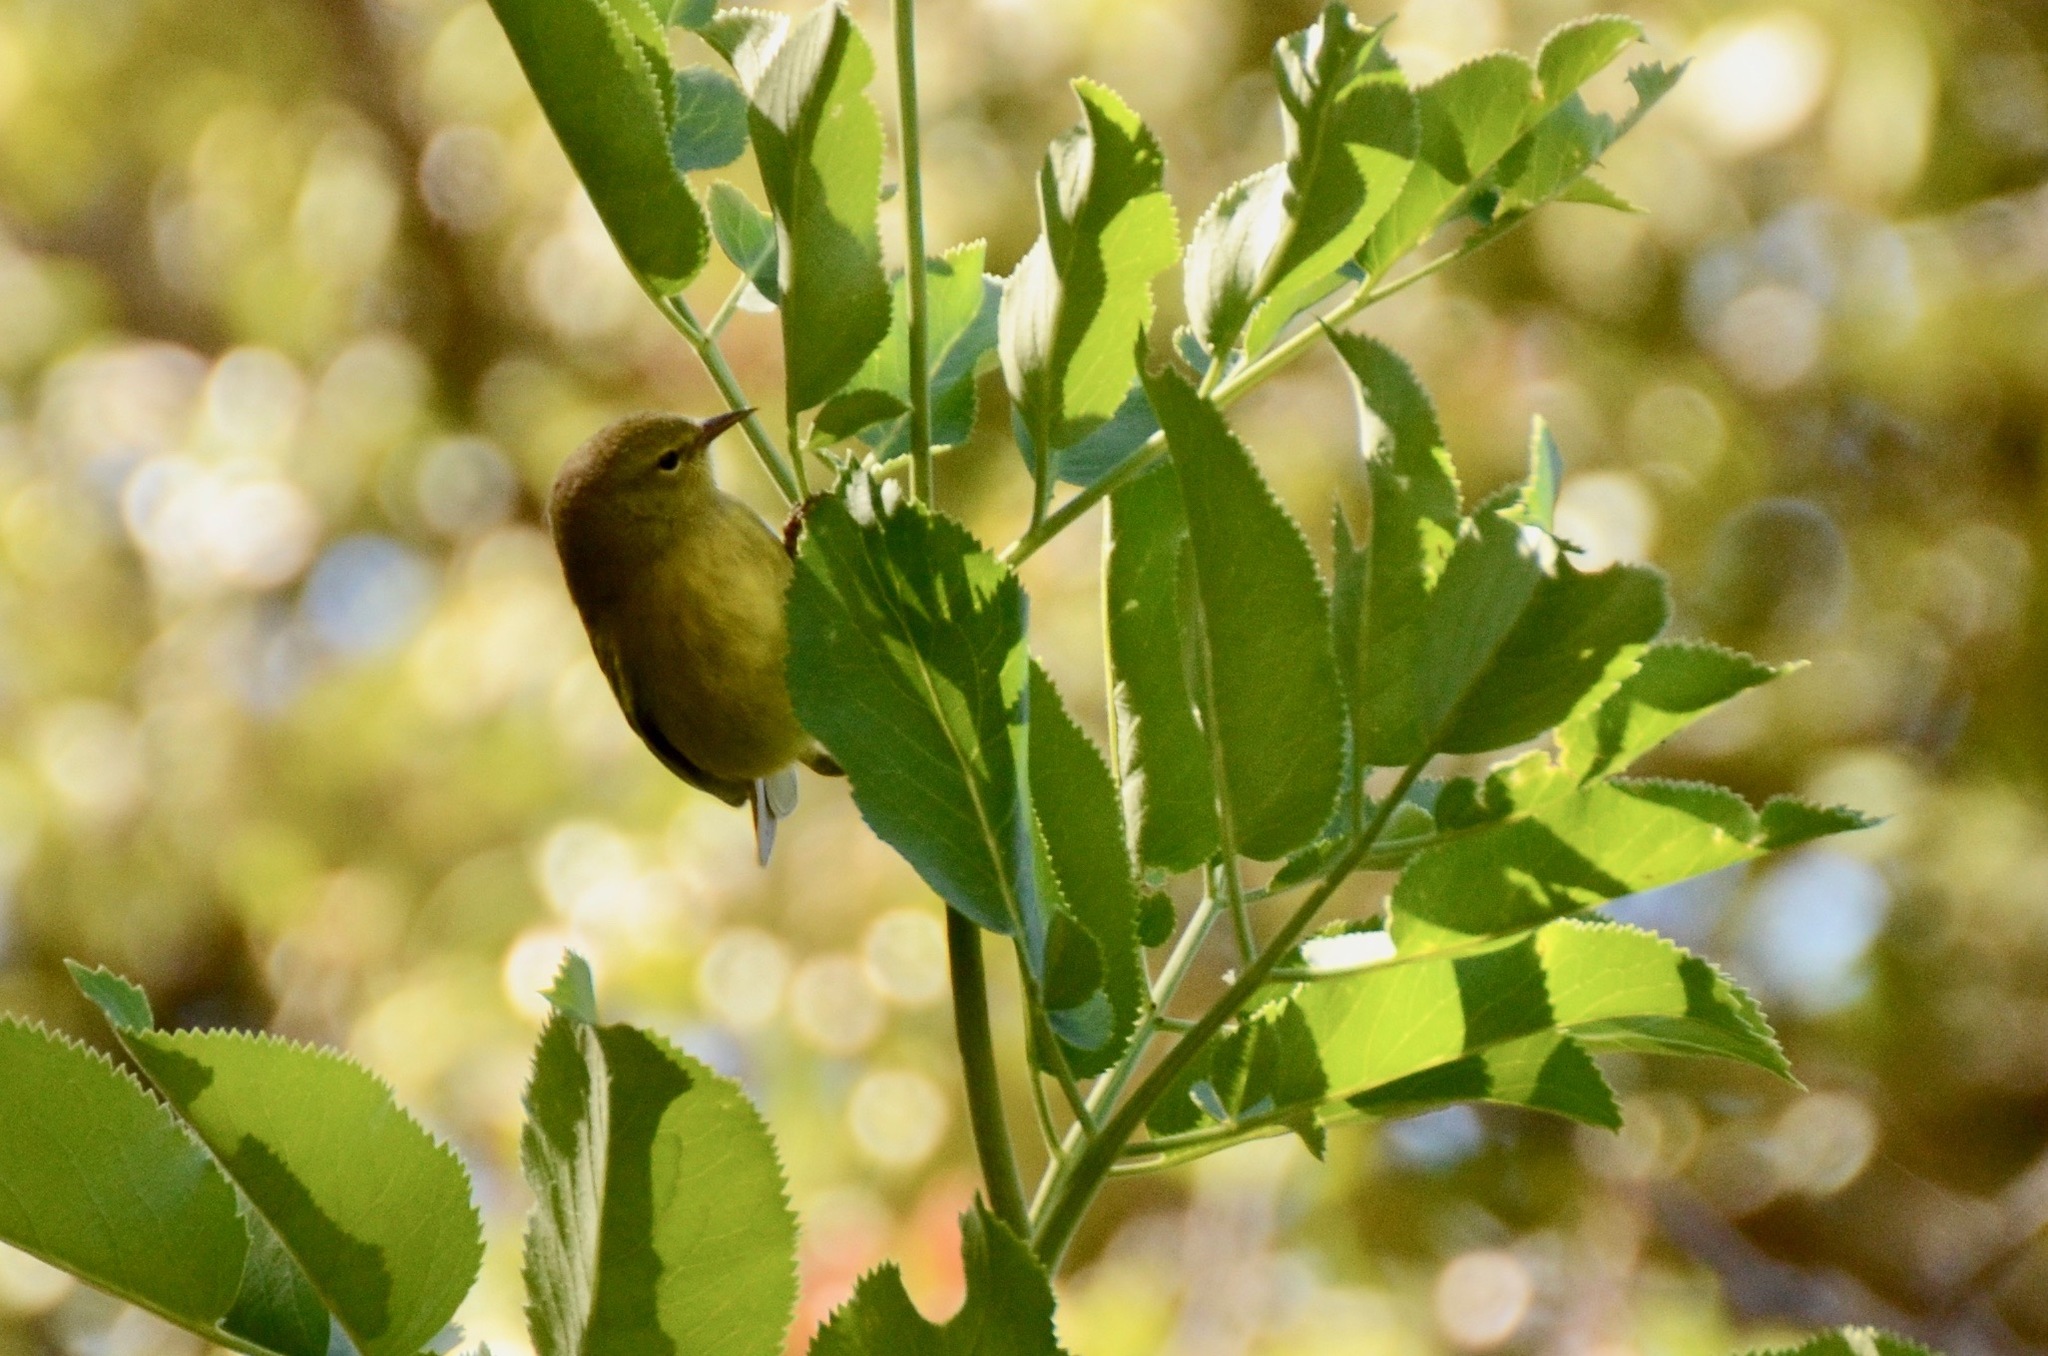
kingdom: Animalia
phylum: Chordata
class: Aves
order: Passeriformes
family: Parulidae
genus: Leiothlypis
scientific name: Leiothlypis celata
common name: Orange-crowned warbler
